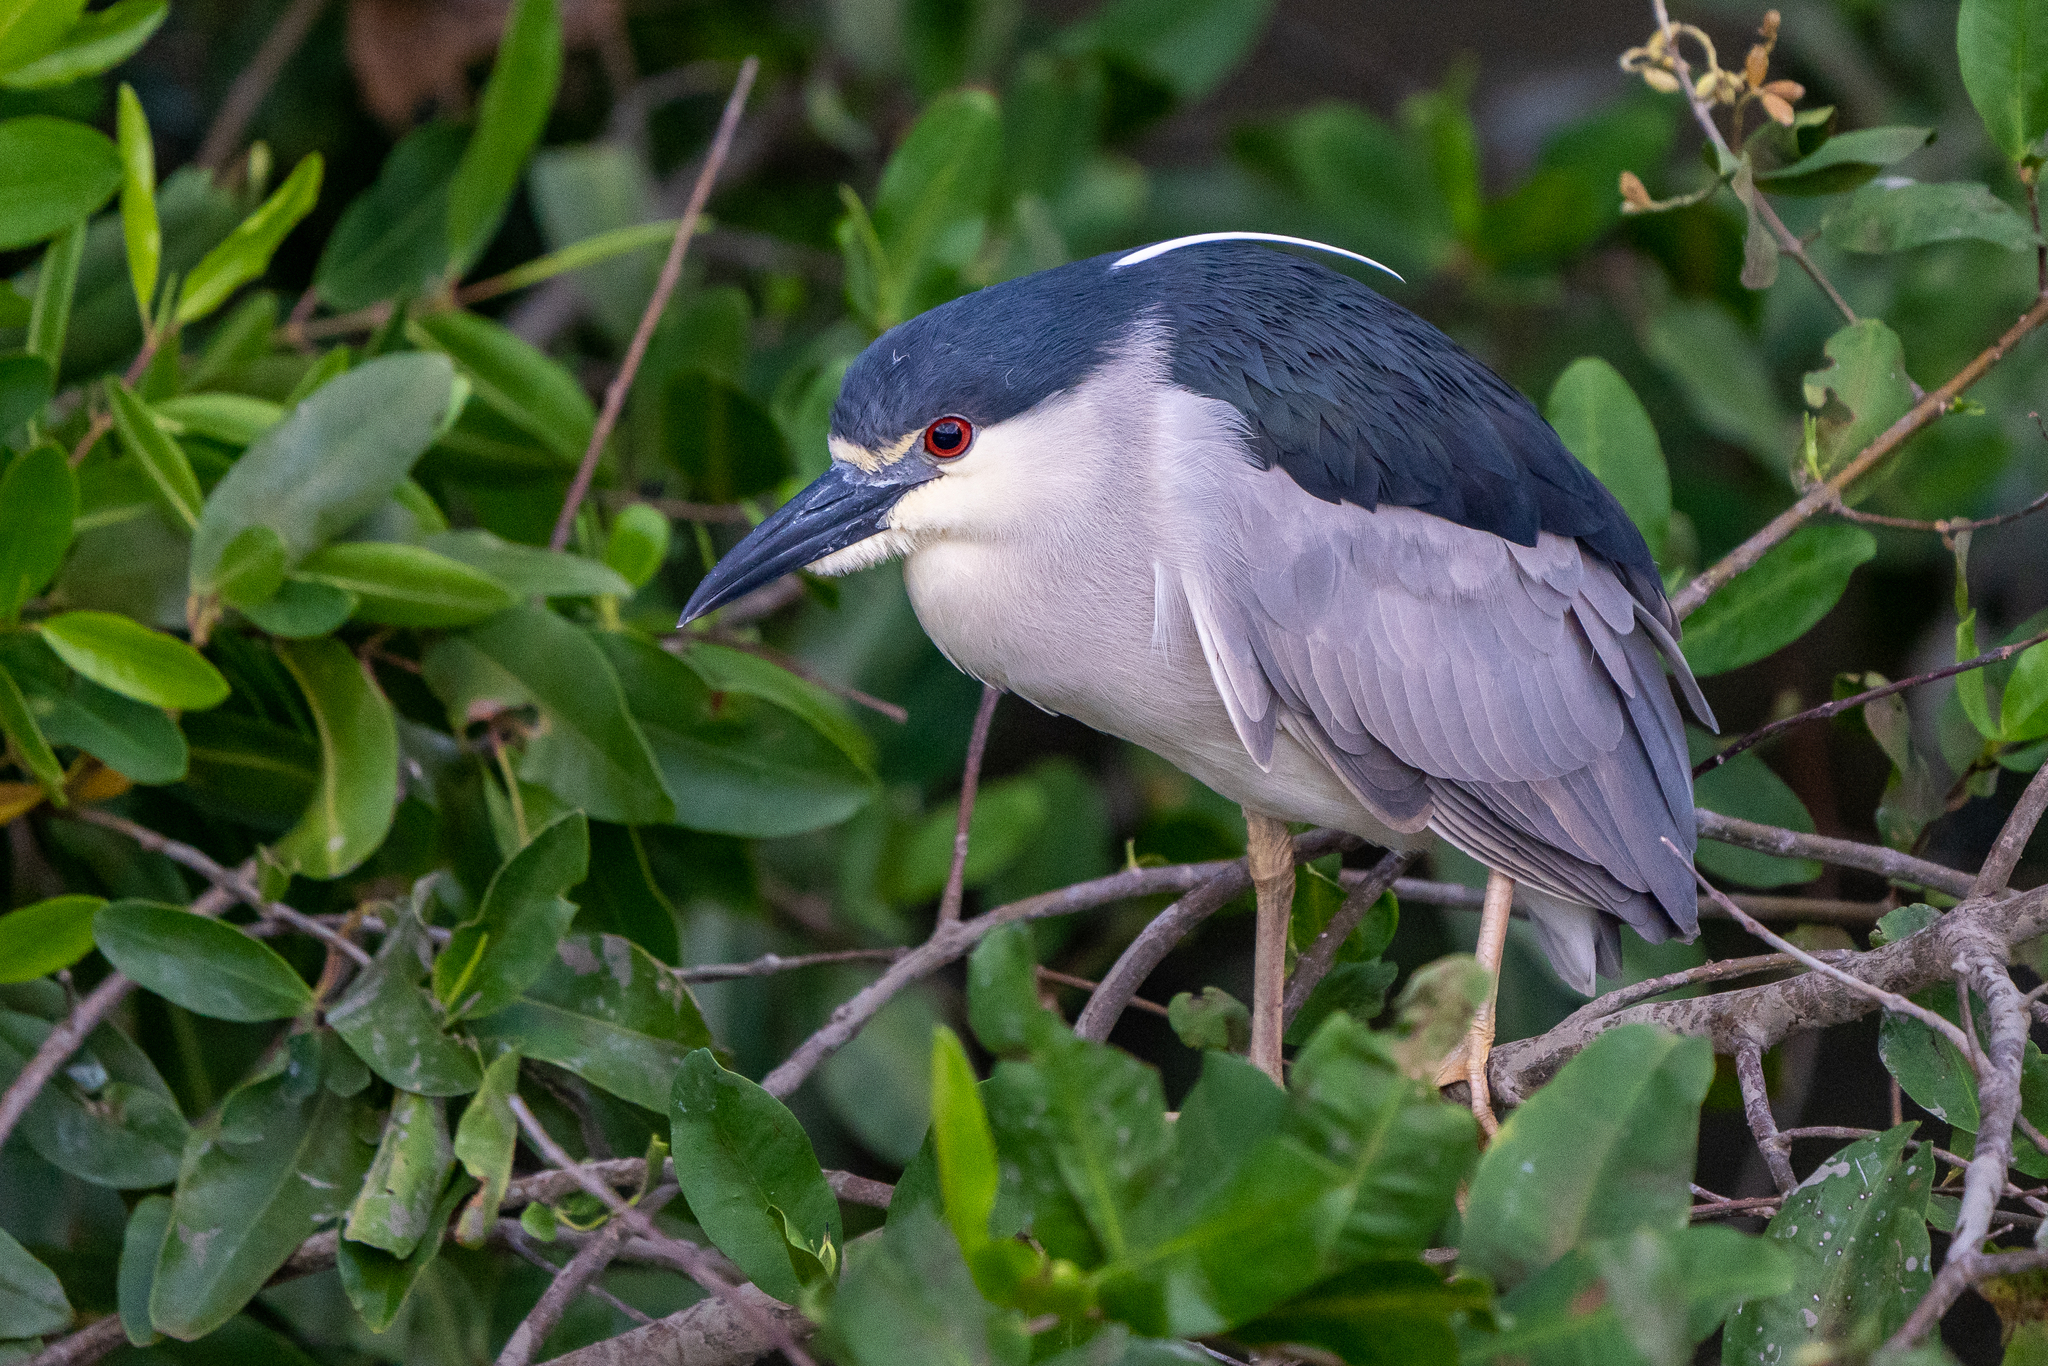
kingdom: Animalia
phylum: Chordata
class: Aves
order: Pelecaniformes
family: Ardeidae
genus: Nycticorax
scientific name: Nycticorax nycticorax
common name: Black-crowned night heron
